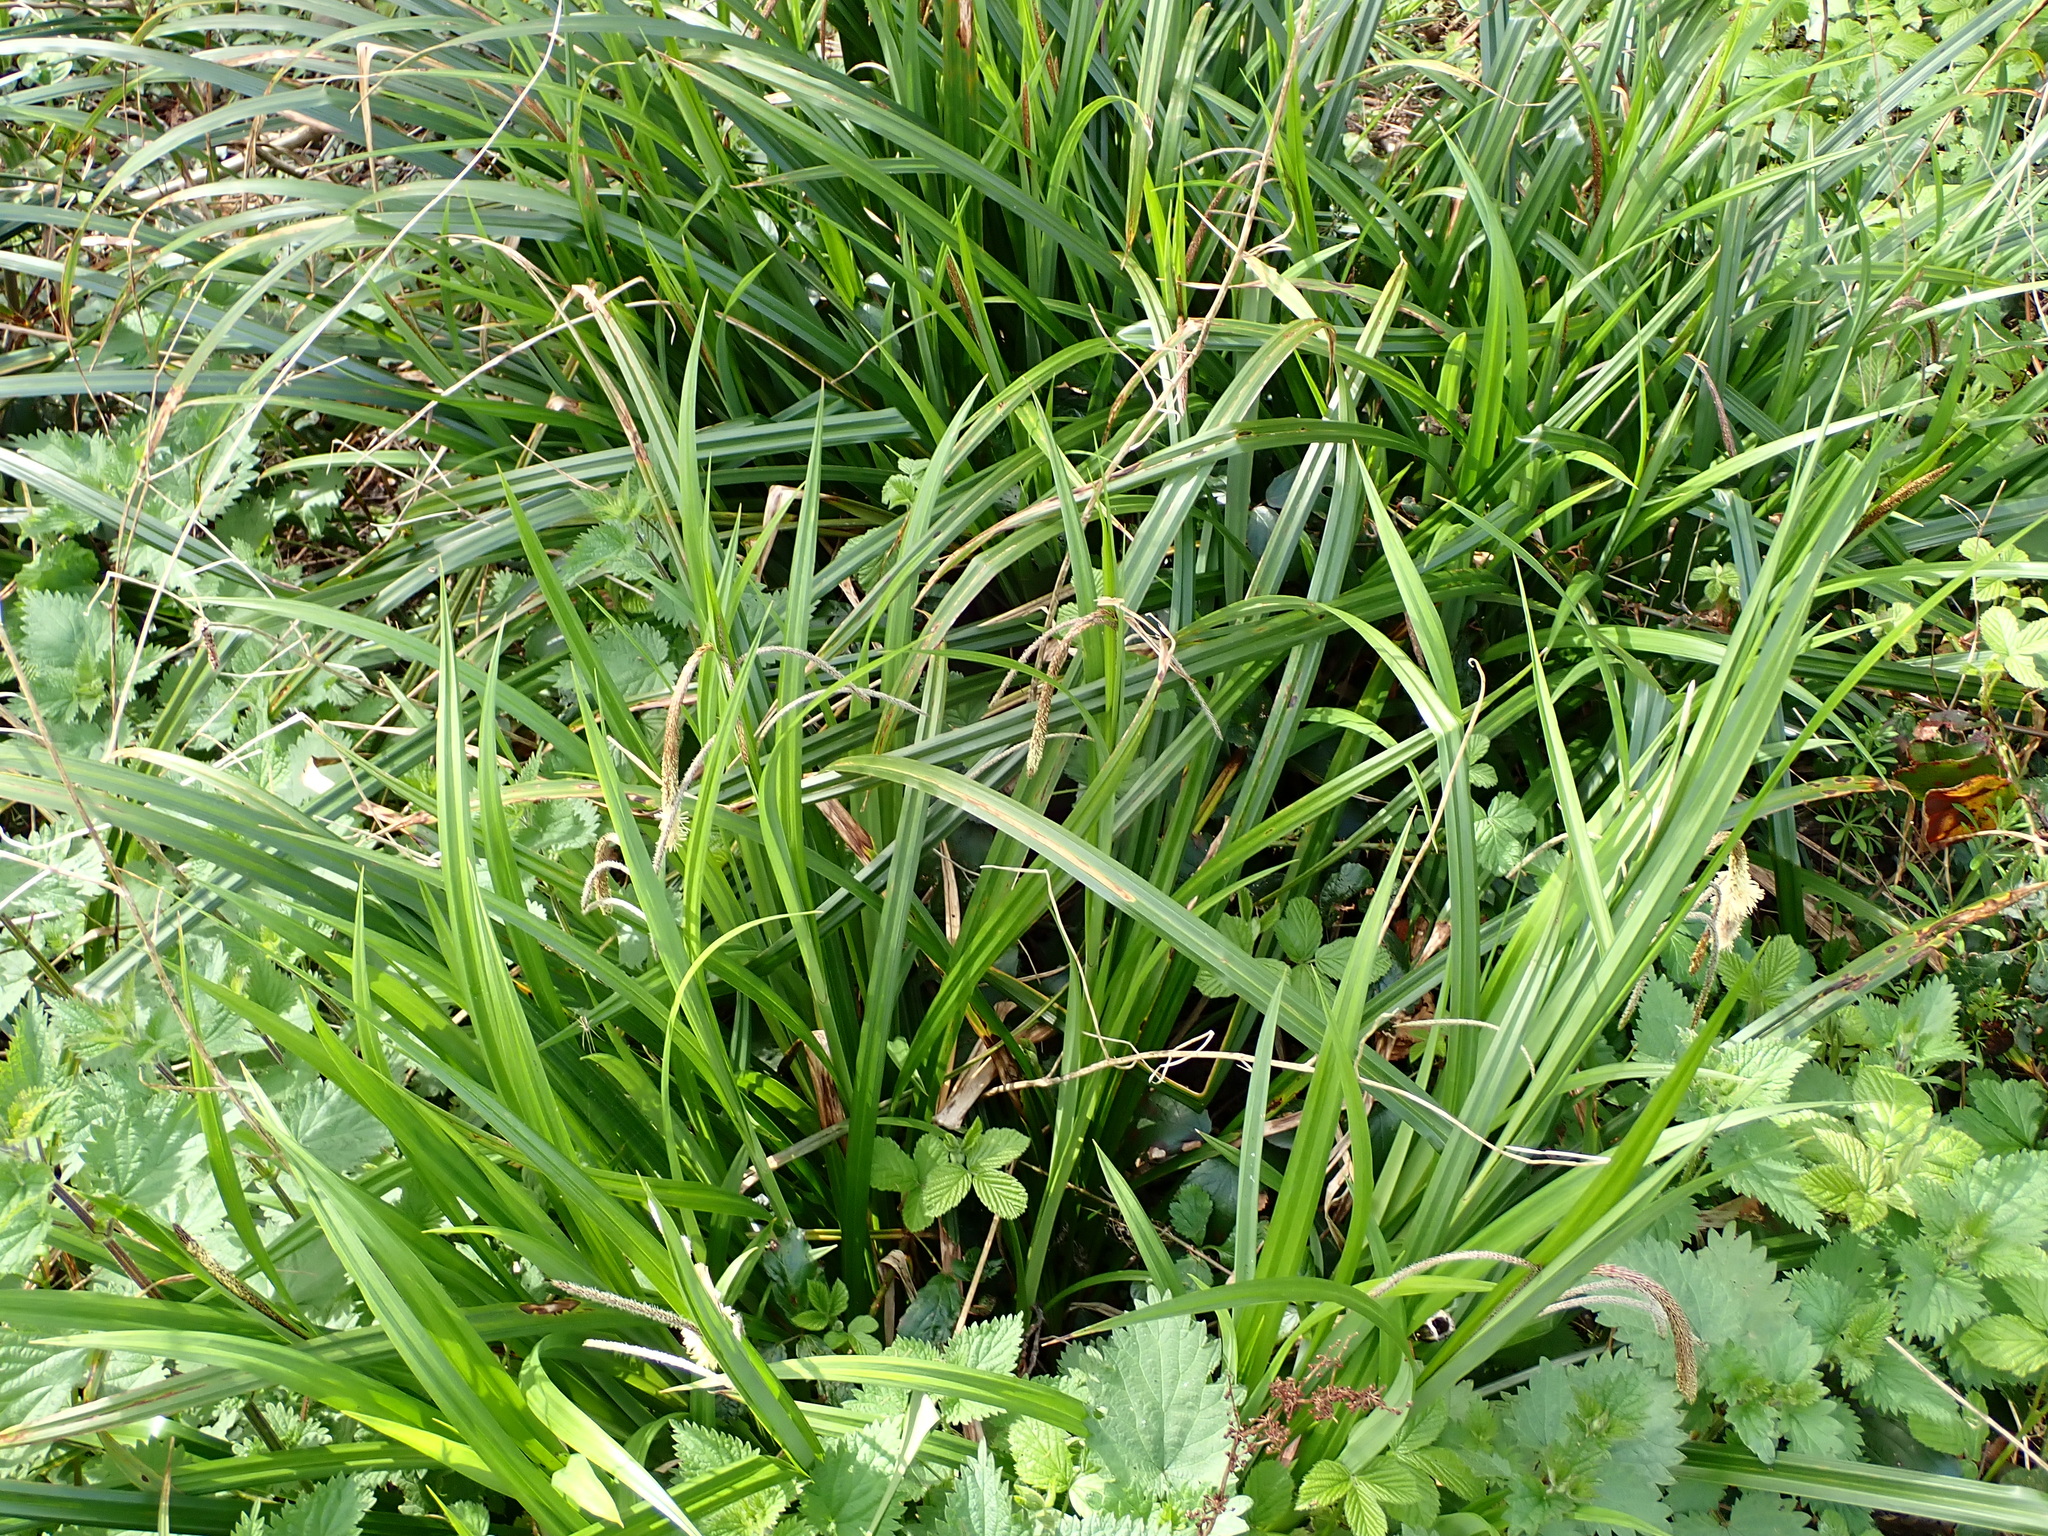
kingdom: Plantae
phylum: Tracheophyta
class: Liliopsida
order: Poales
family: Cyperaceae
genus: Carex
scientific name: Carex pendula
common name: Pendulous sedge
